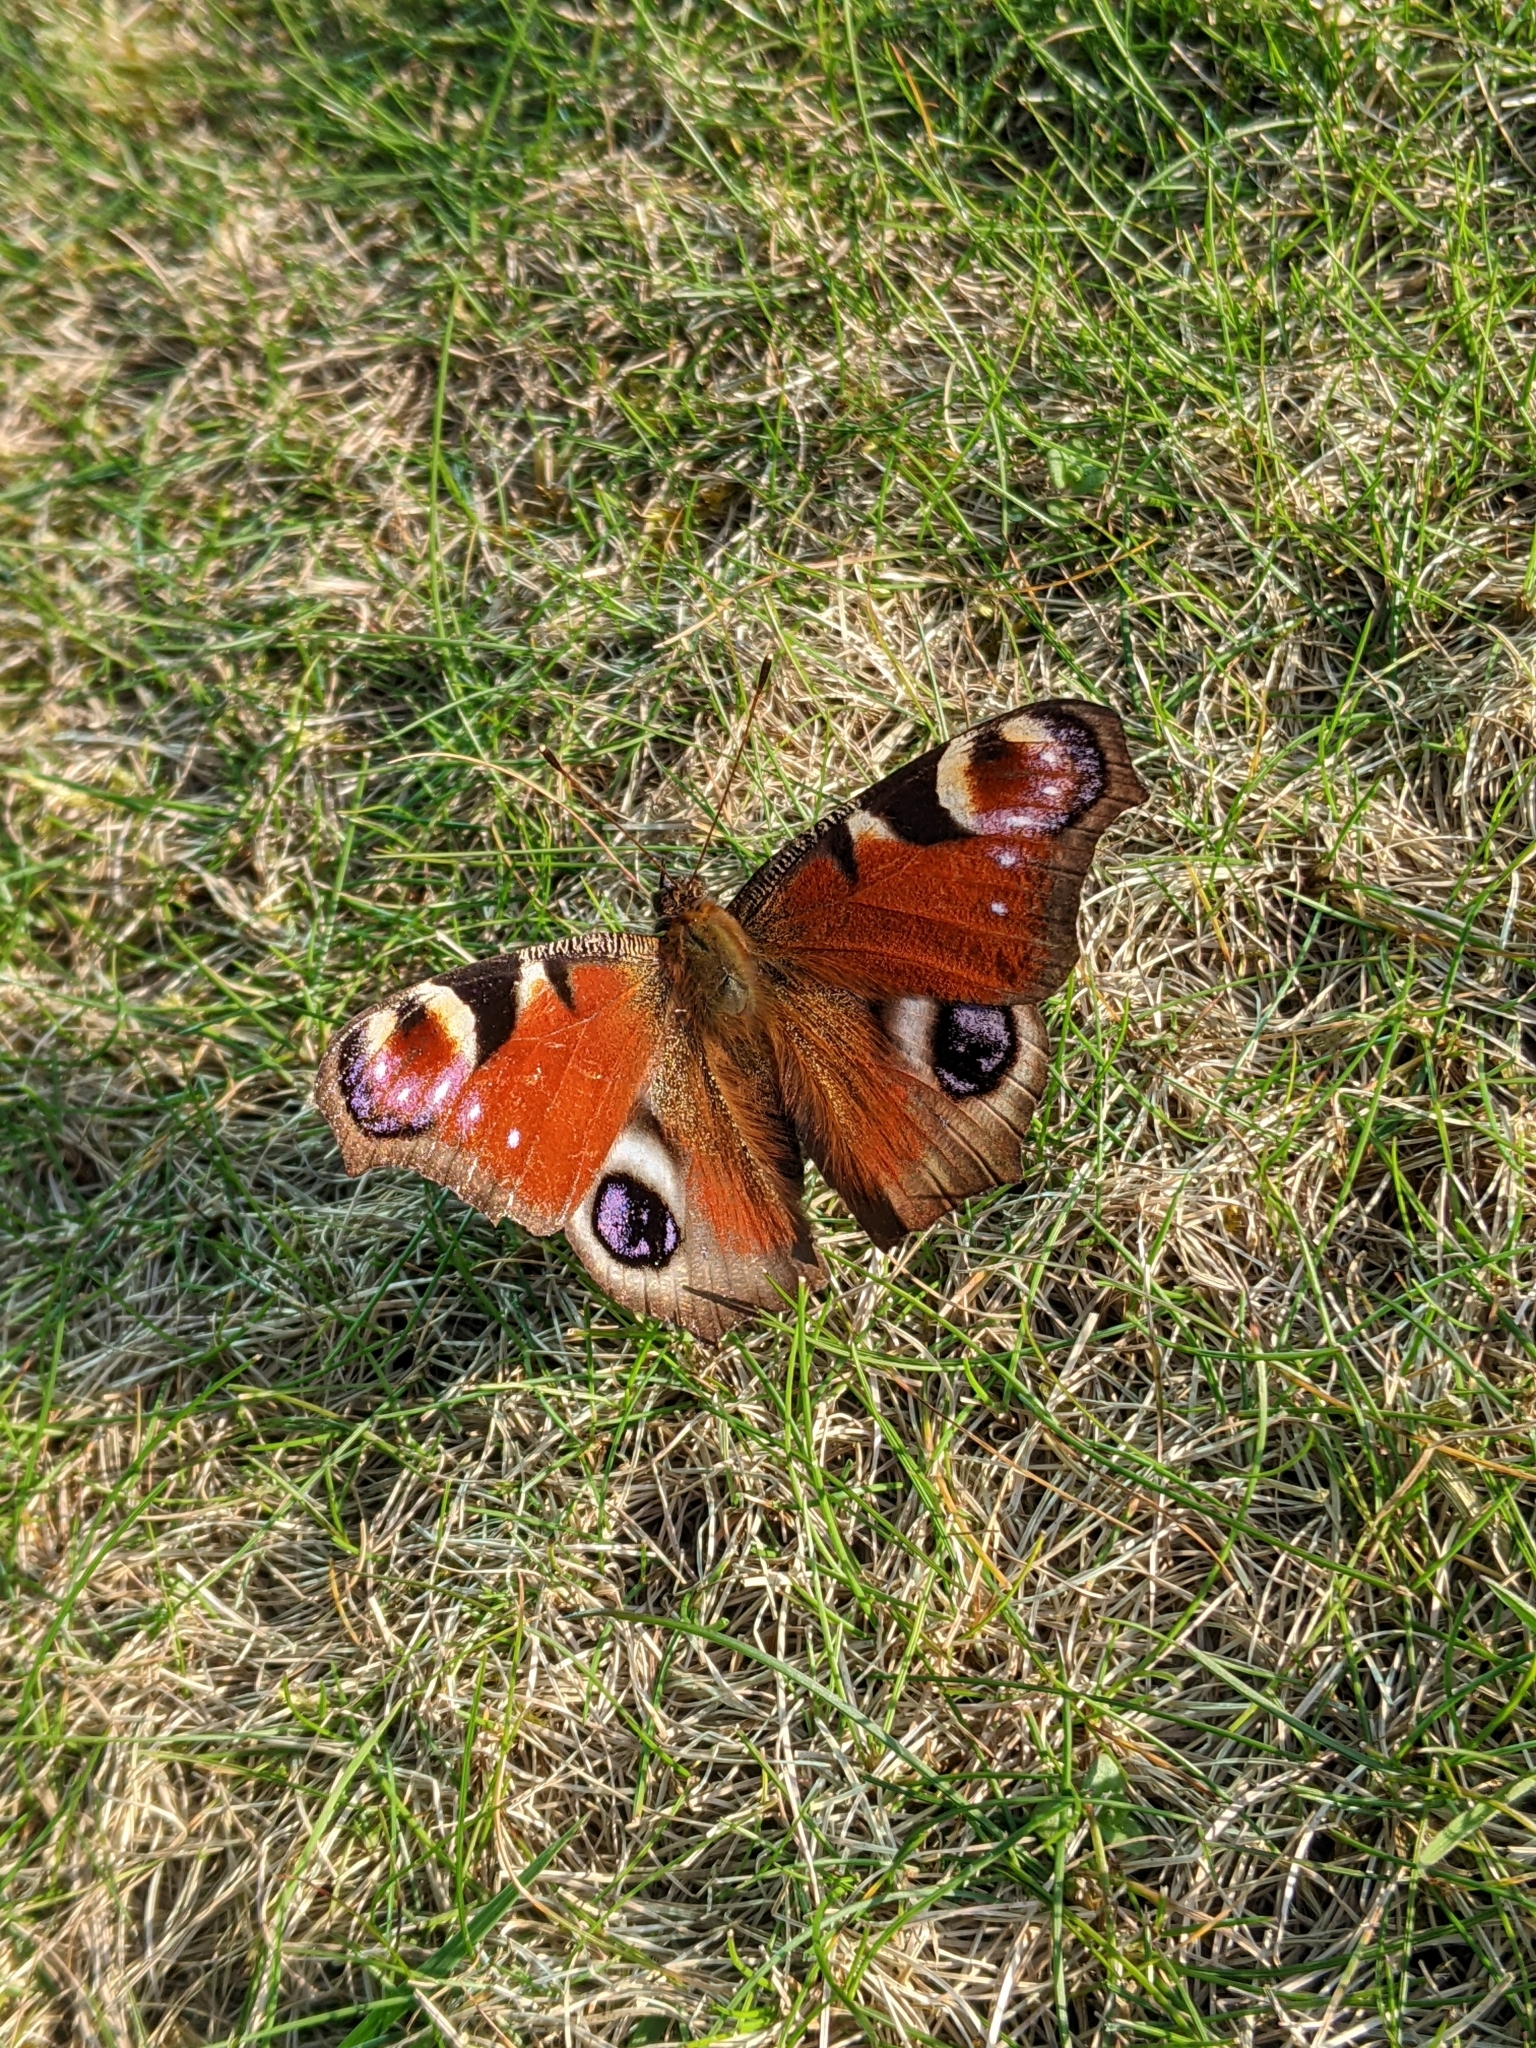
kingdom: Animalia
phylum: Arthropoda
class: Insecta
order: Lepidoptera
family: Nymphalidae
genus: Aglais
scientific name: Aglais io
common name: Peacock
